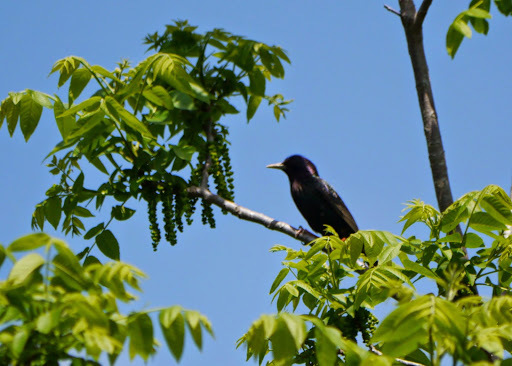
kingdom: Animalia
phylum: Chordata
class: Aves
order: Passeriformes
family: Sturnidae
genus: Sturnus
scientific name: Sturnus vulgaris
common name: Common starling
